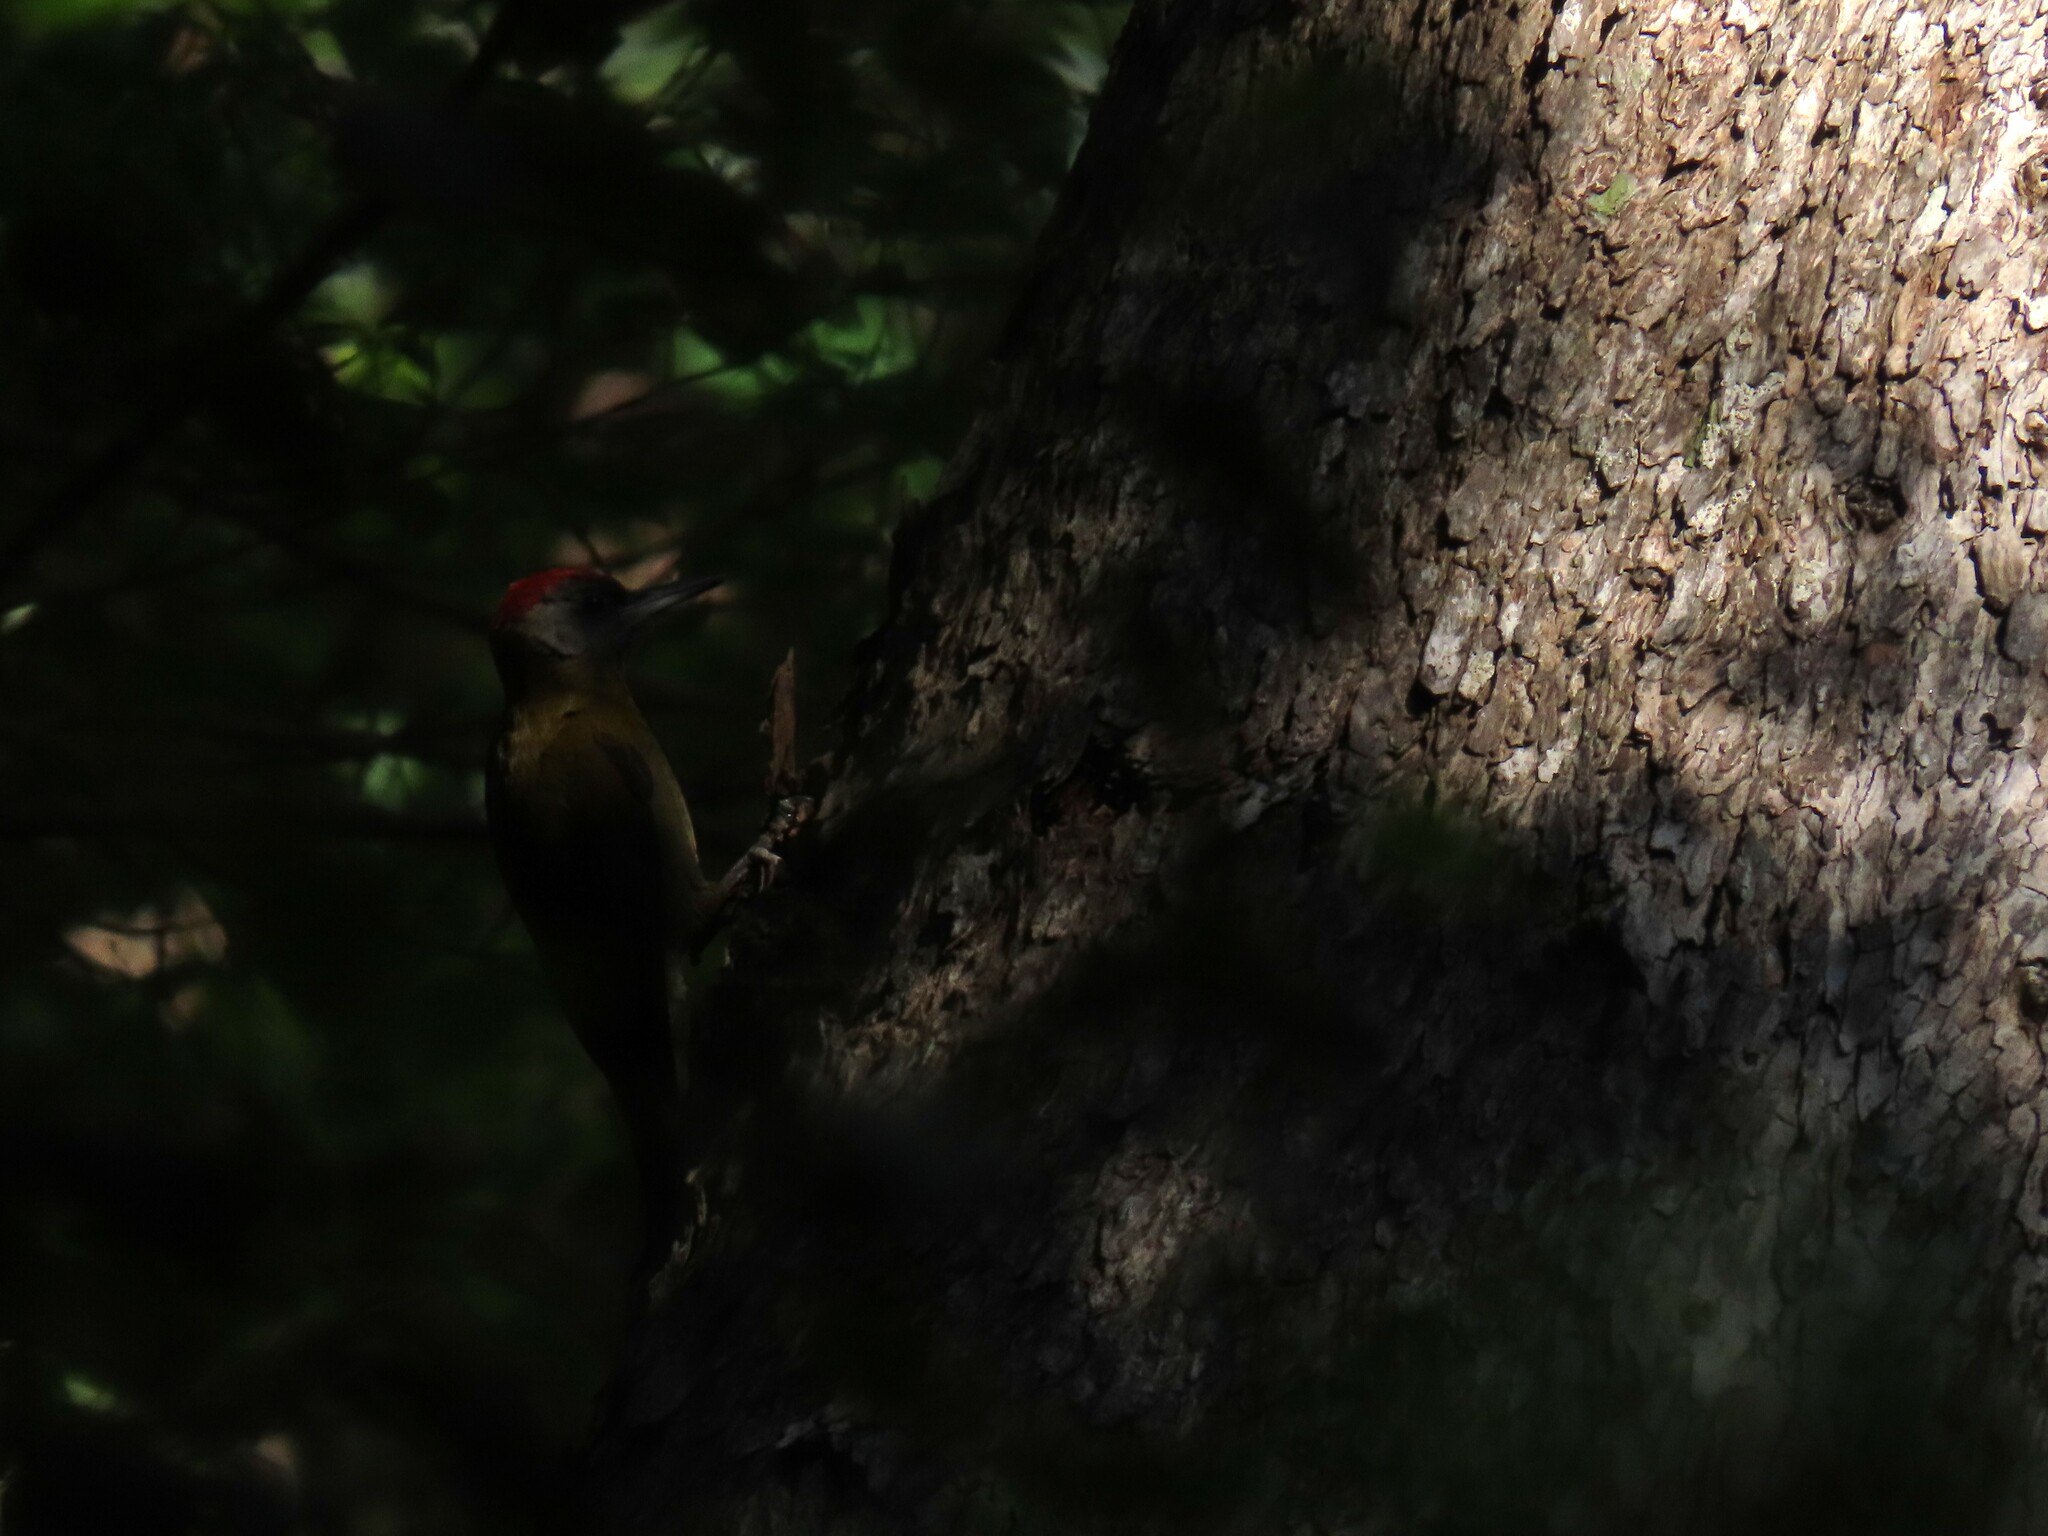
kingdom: Animalia
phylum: Chordata
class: Aves
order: Piciformes
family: Picidae
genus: Dendropicos
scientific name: Dendropicos griseocephalus
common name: Olive woodpecker
